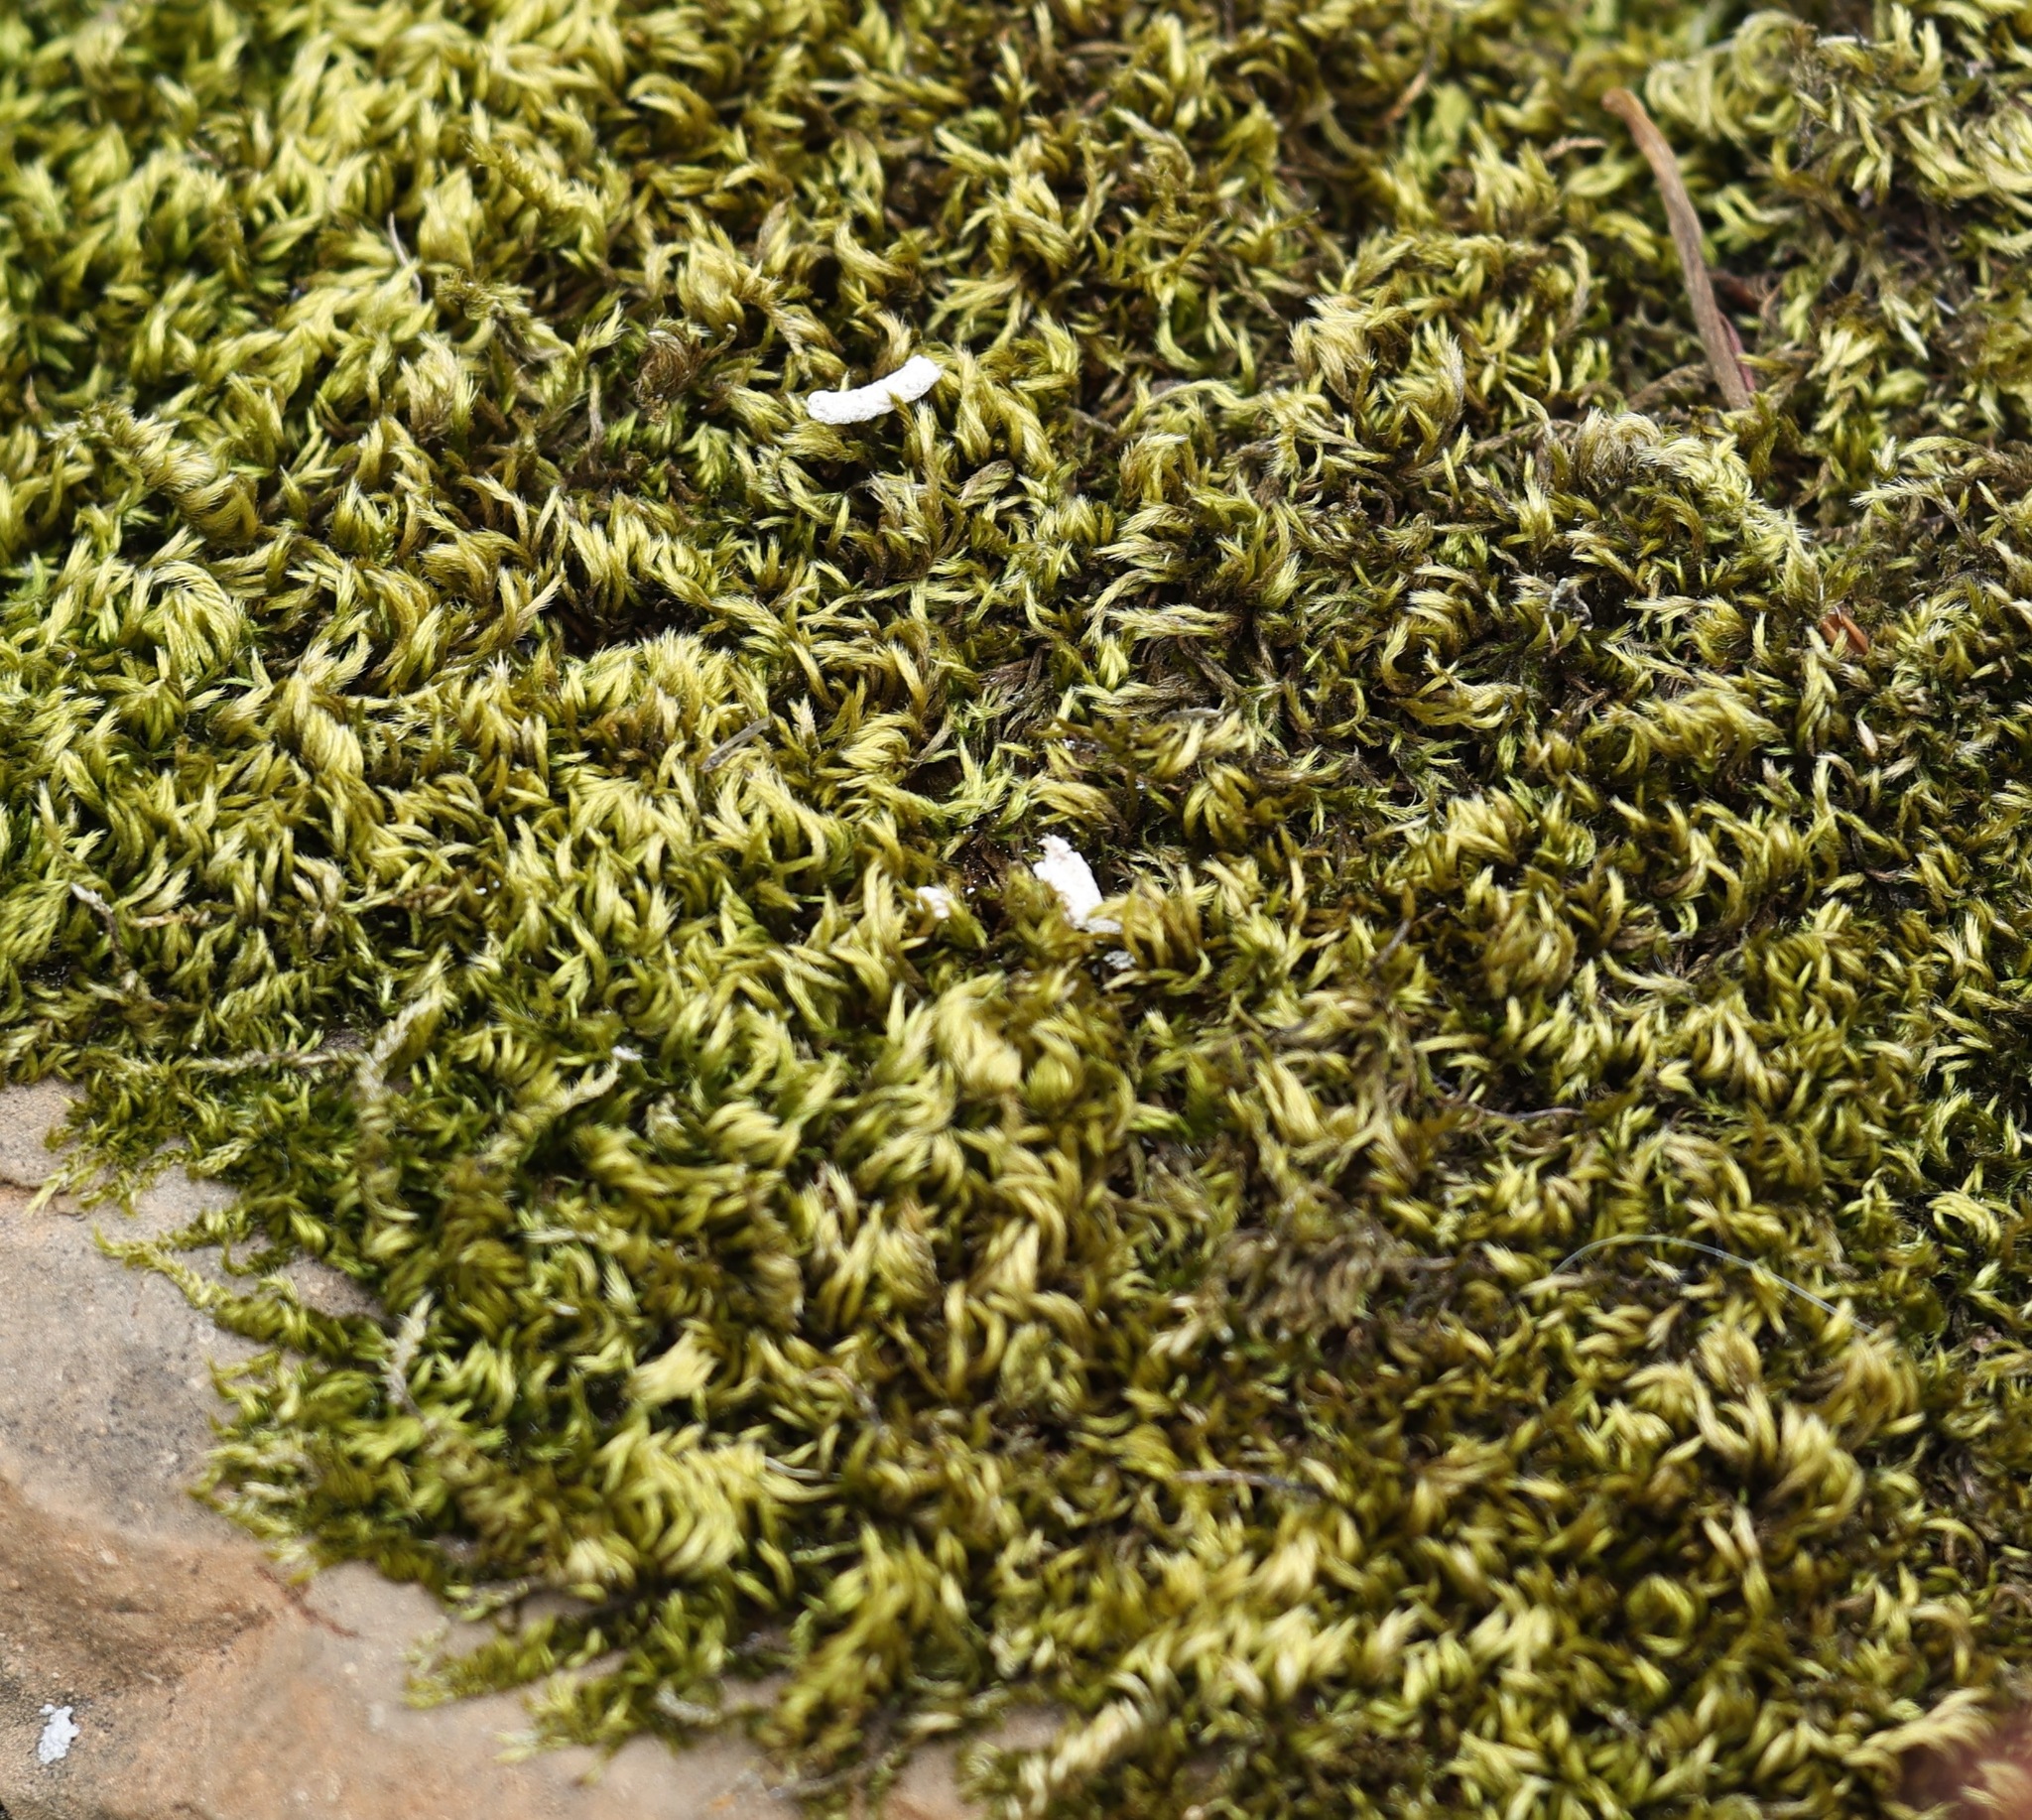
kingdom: Plantae
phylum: Bryophyta
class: Bryopsida
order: Hypnales
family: Brachytheciaceae
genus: Homalothecium
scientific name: Homalothecium sericeum
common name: Silky wall feather-moss
